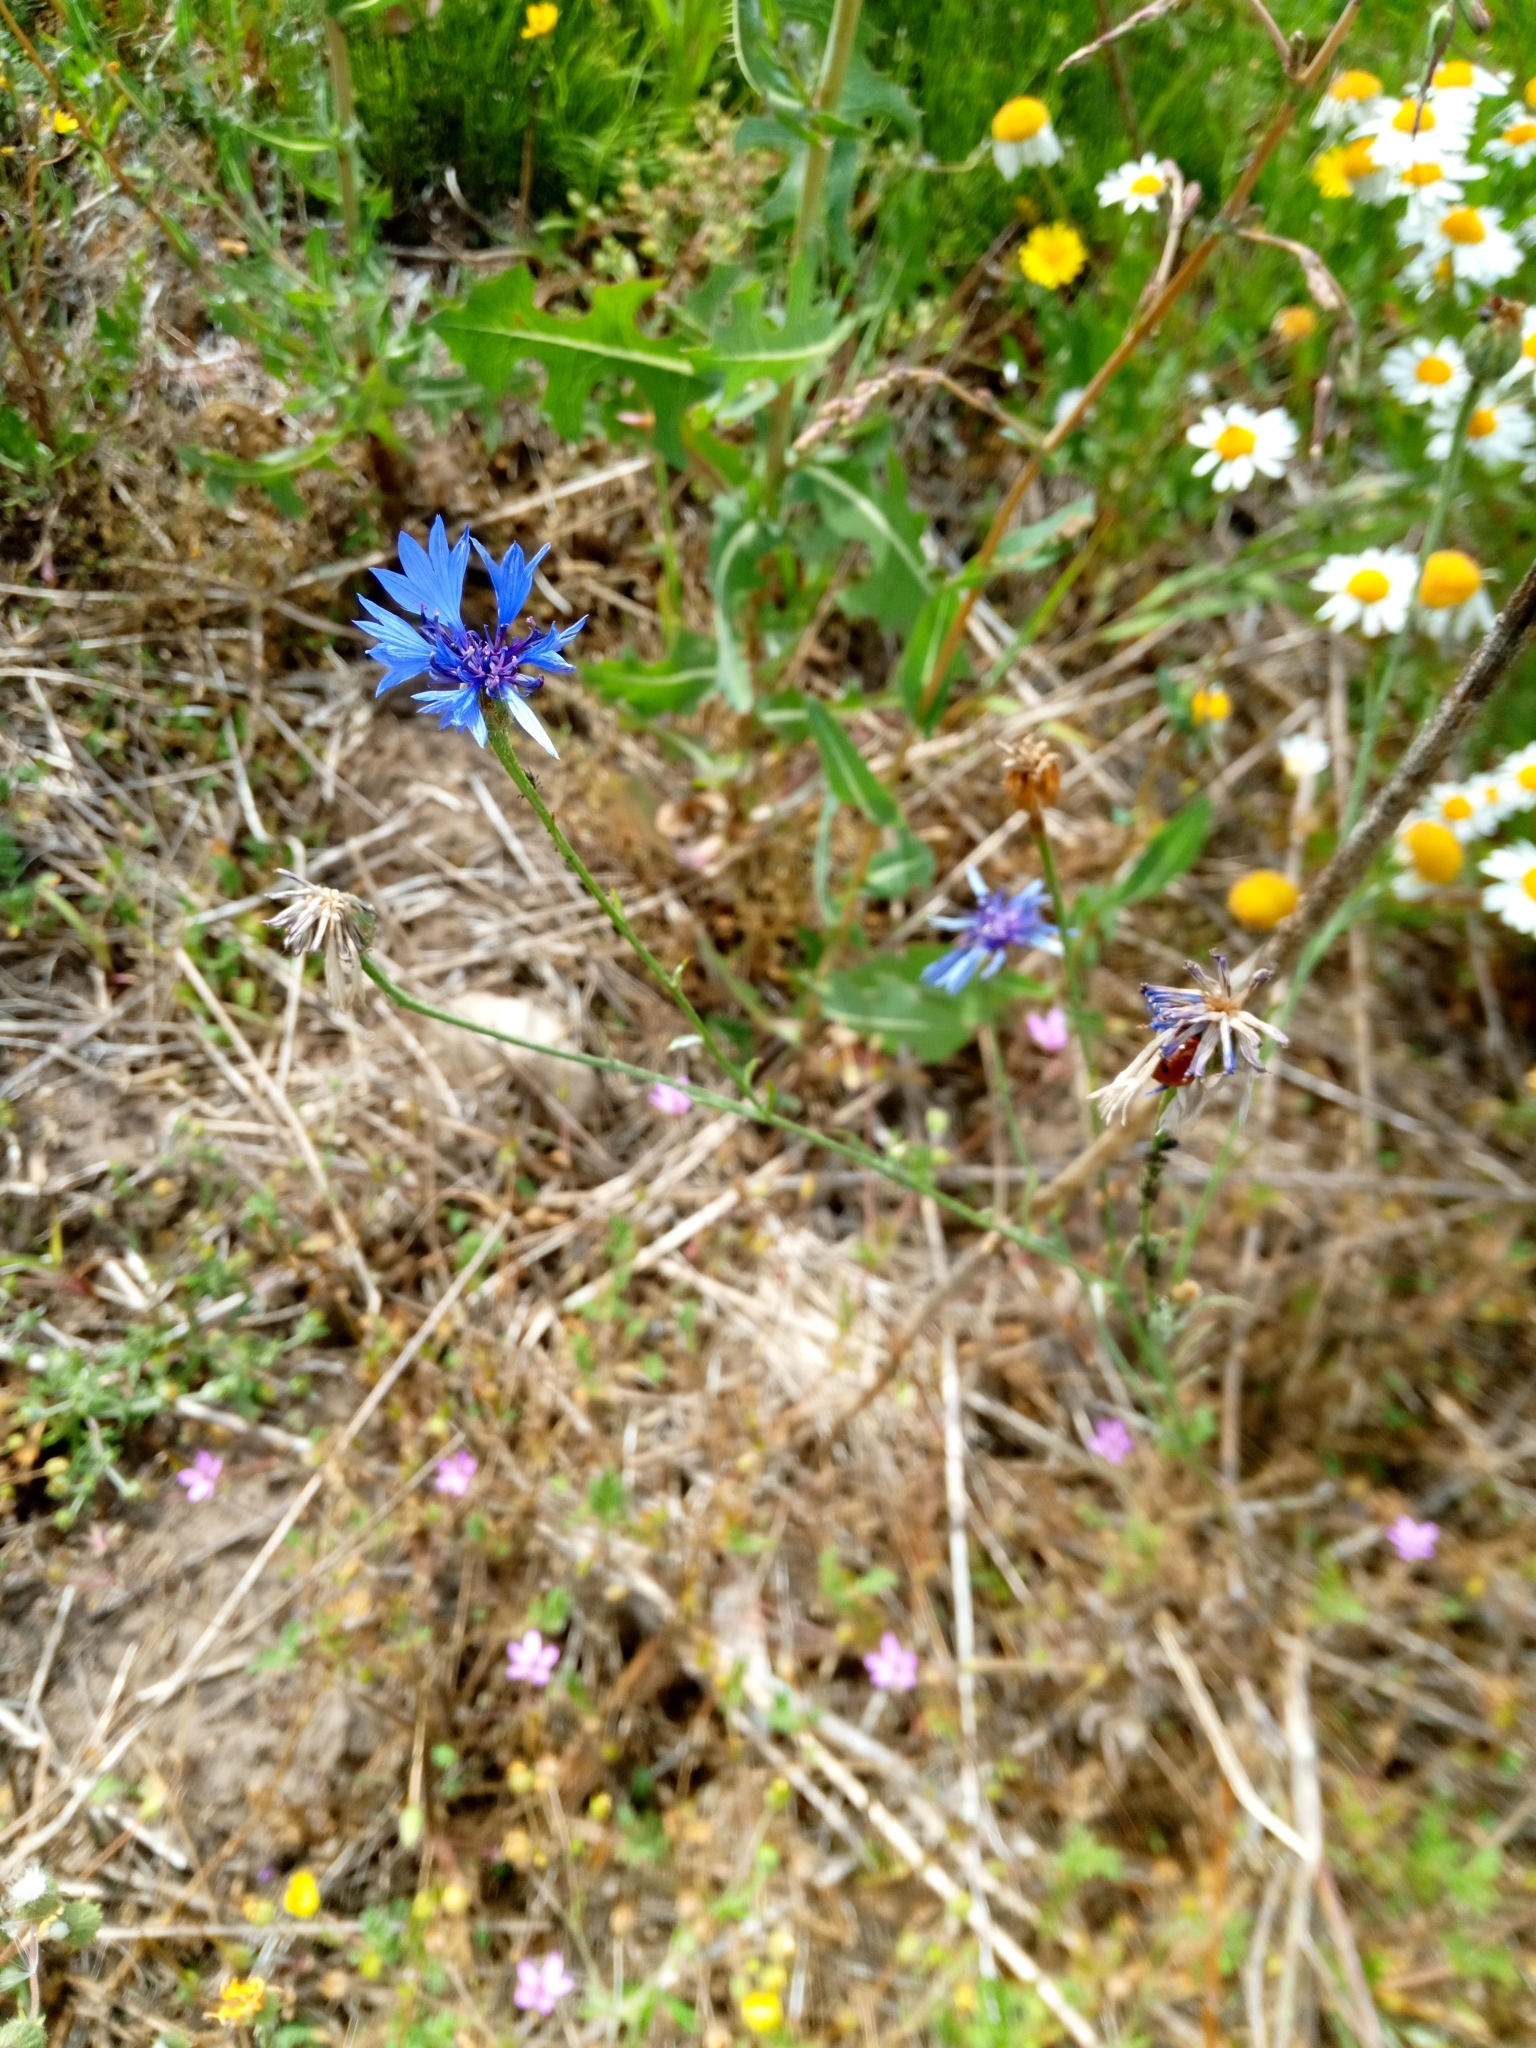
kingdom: Plantae
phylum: Tracheophyta
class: Magnoliopsida
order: Asterales
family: Asteraceae
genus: Centaurea
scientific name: Centaurea cyanus
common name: Cornflower
